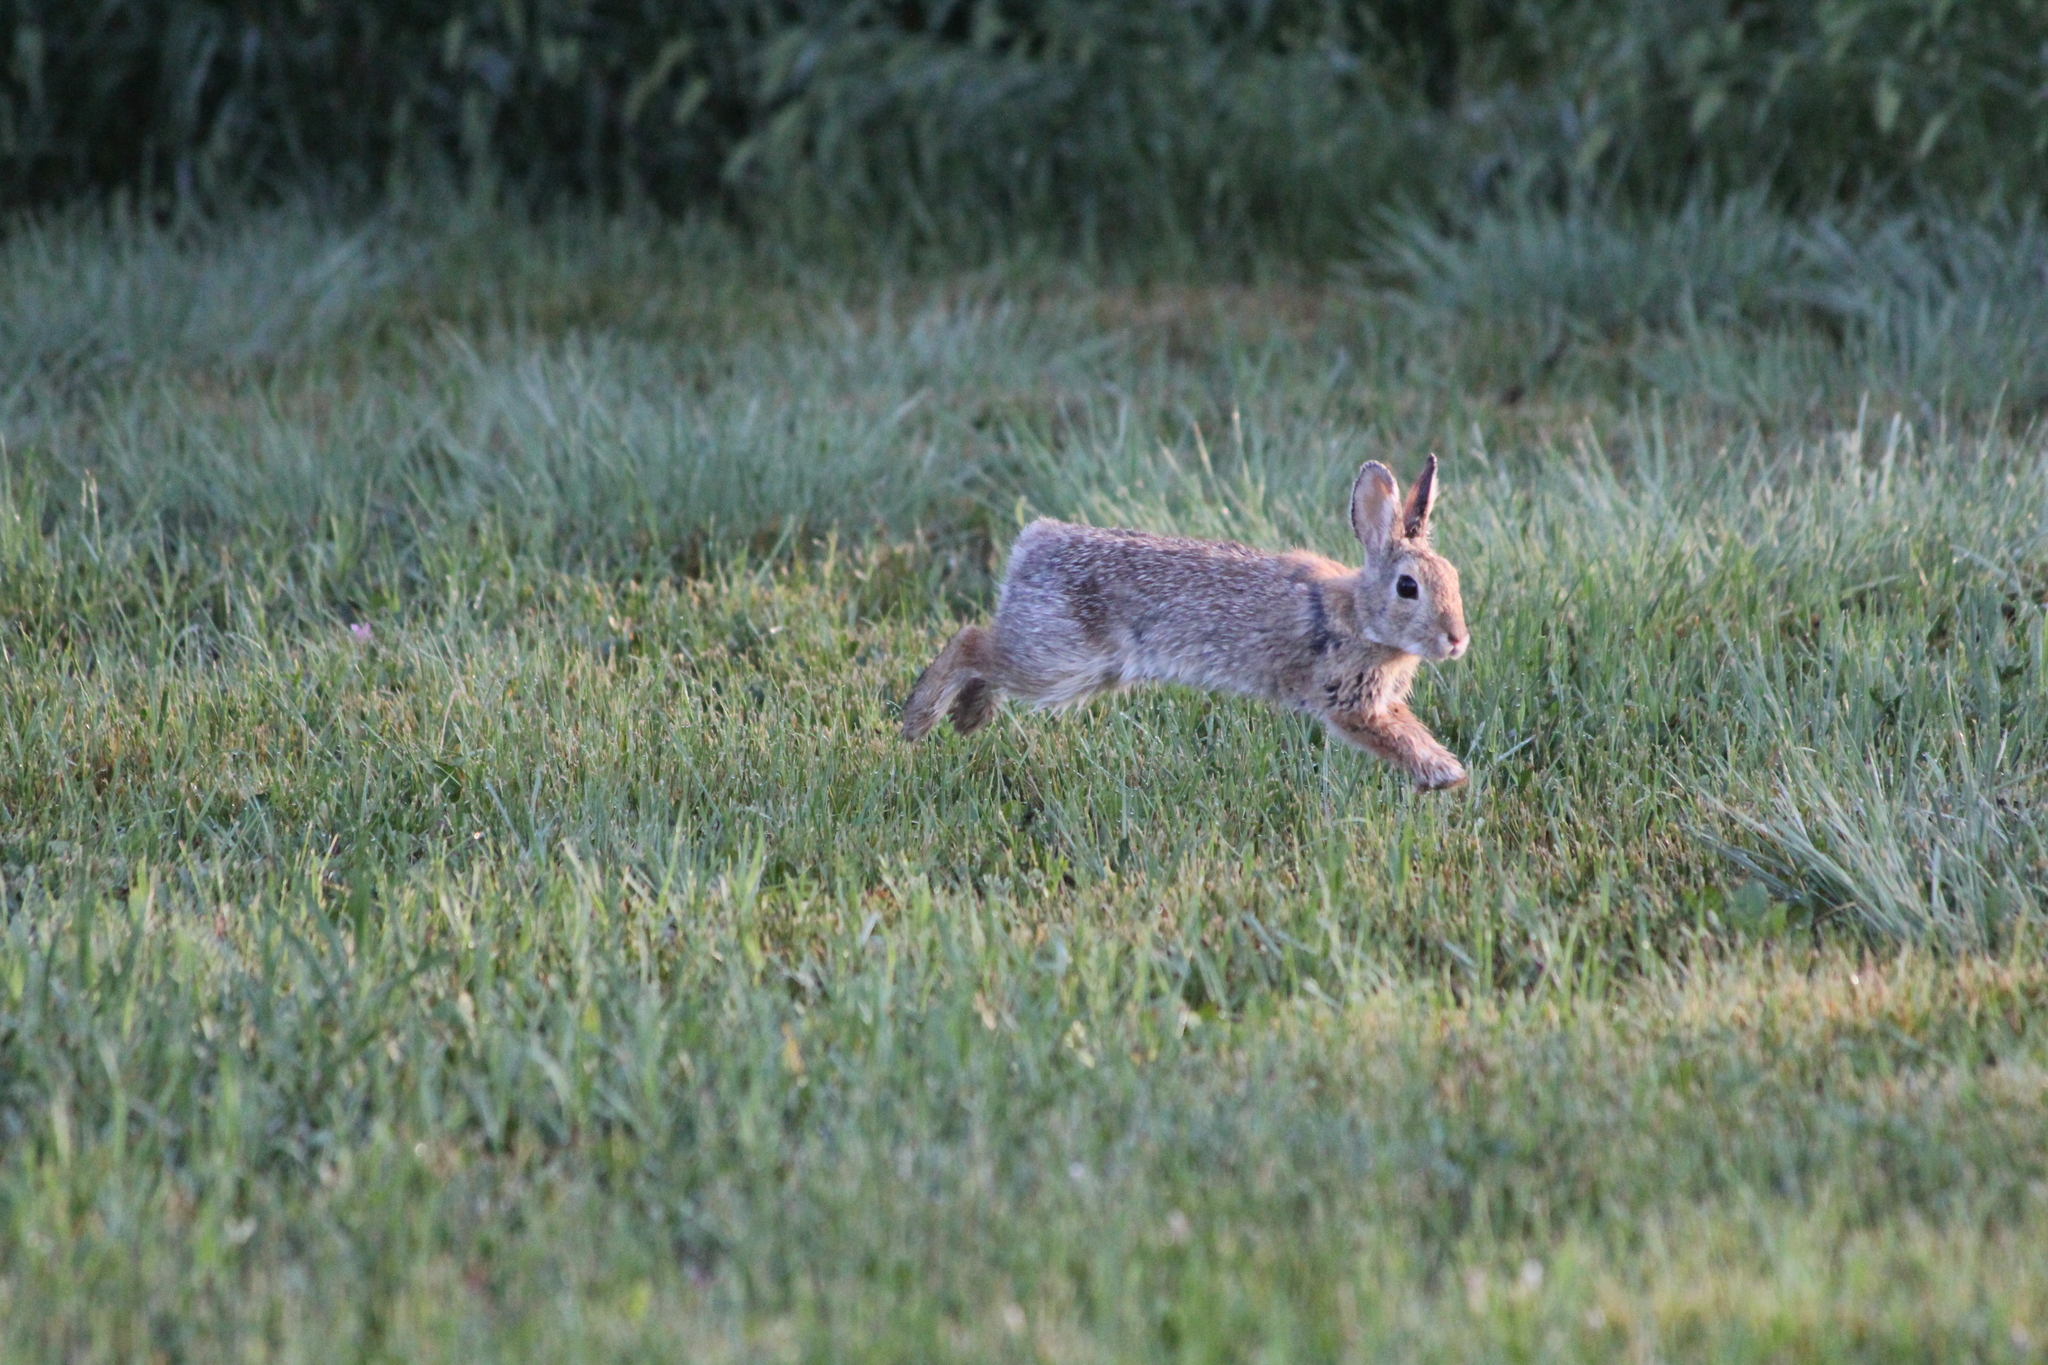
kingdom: Animalia
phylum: Chordata
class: Mammalia
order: Lagomorpha
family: Leporidae
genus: Sylvilagus
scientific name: Sylvilagus nuttallii
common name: Mountain cottontail
